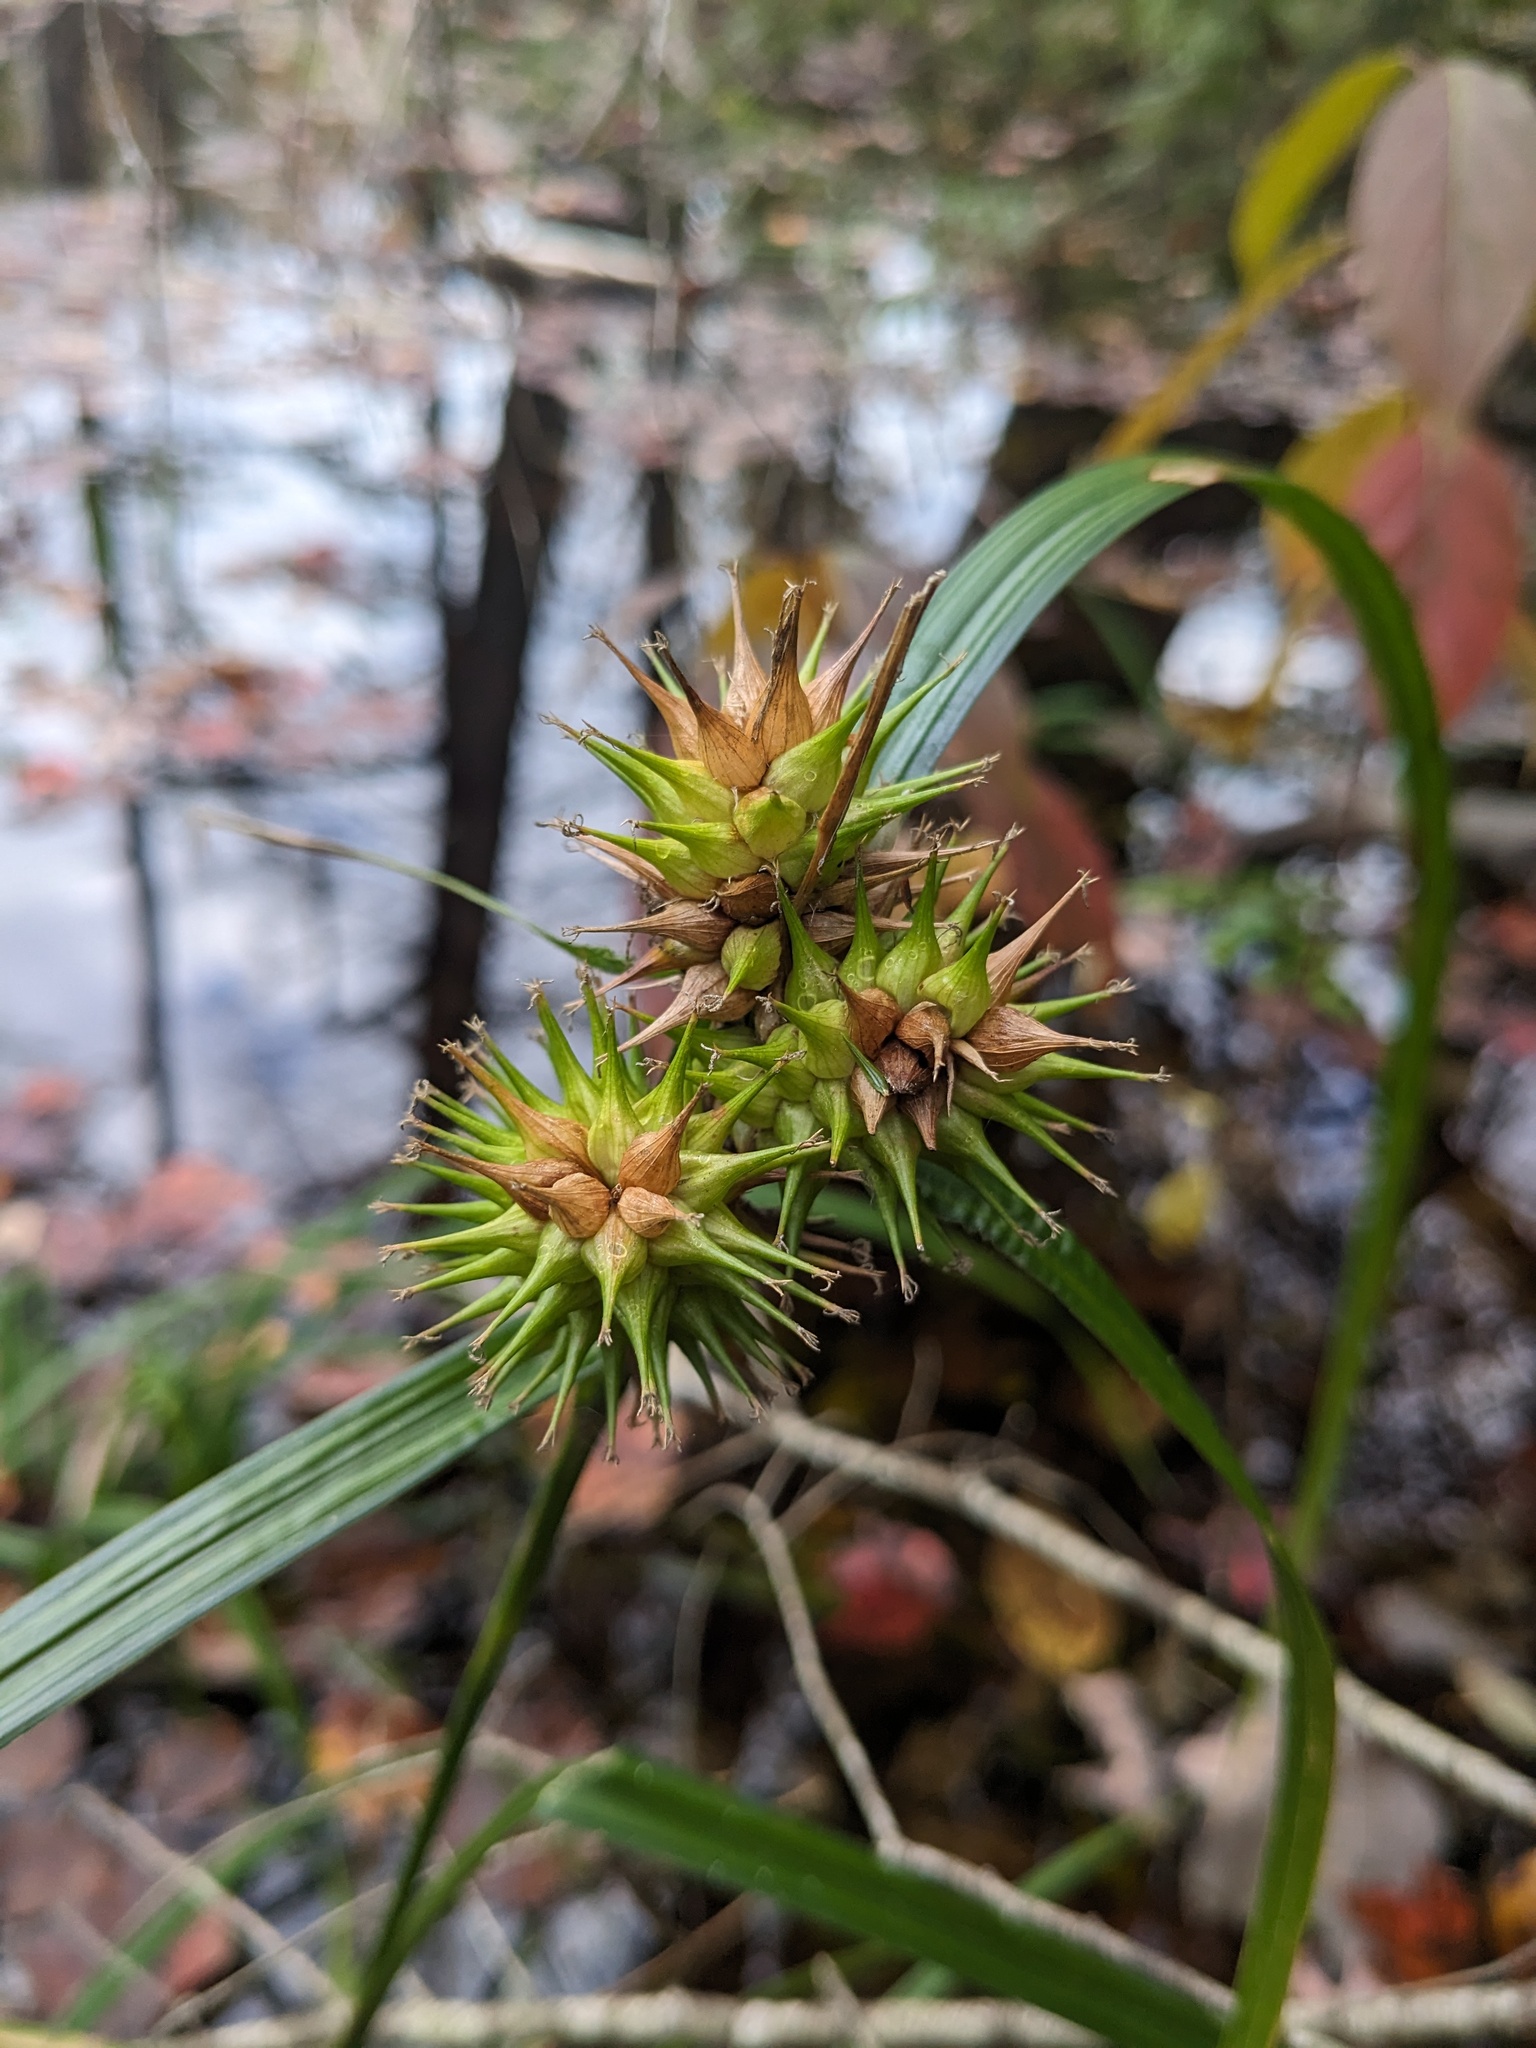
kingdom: Plantae
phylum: Tracheophyta
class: Liliopsida
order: Poales
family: Cyperaceae
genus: Carex
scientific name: Carex lupulina
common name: Hop sedge
